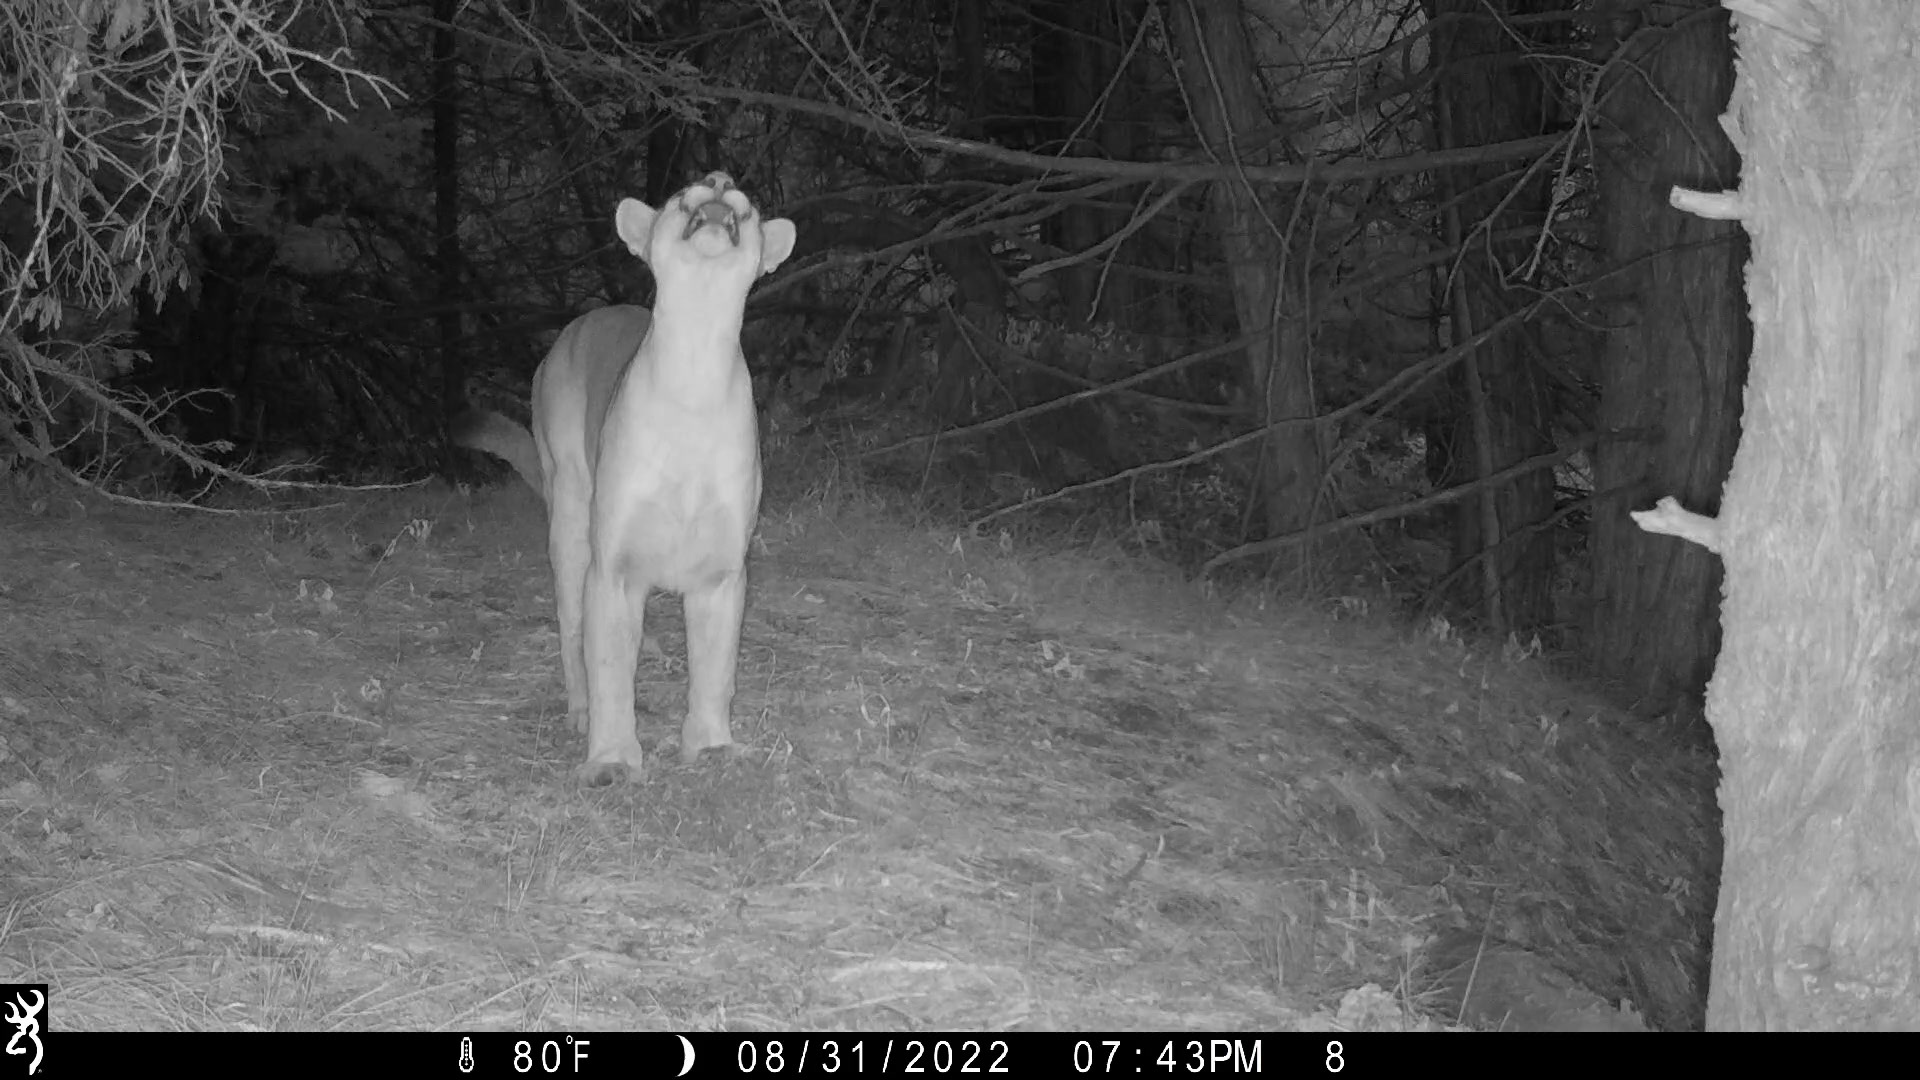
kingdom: Animalia
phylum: Chordata
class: Mammalia
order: Carnivora
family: Felidae
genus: Puma
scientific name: Puma concolor
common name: Puma
